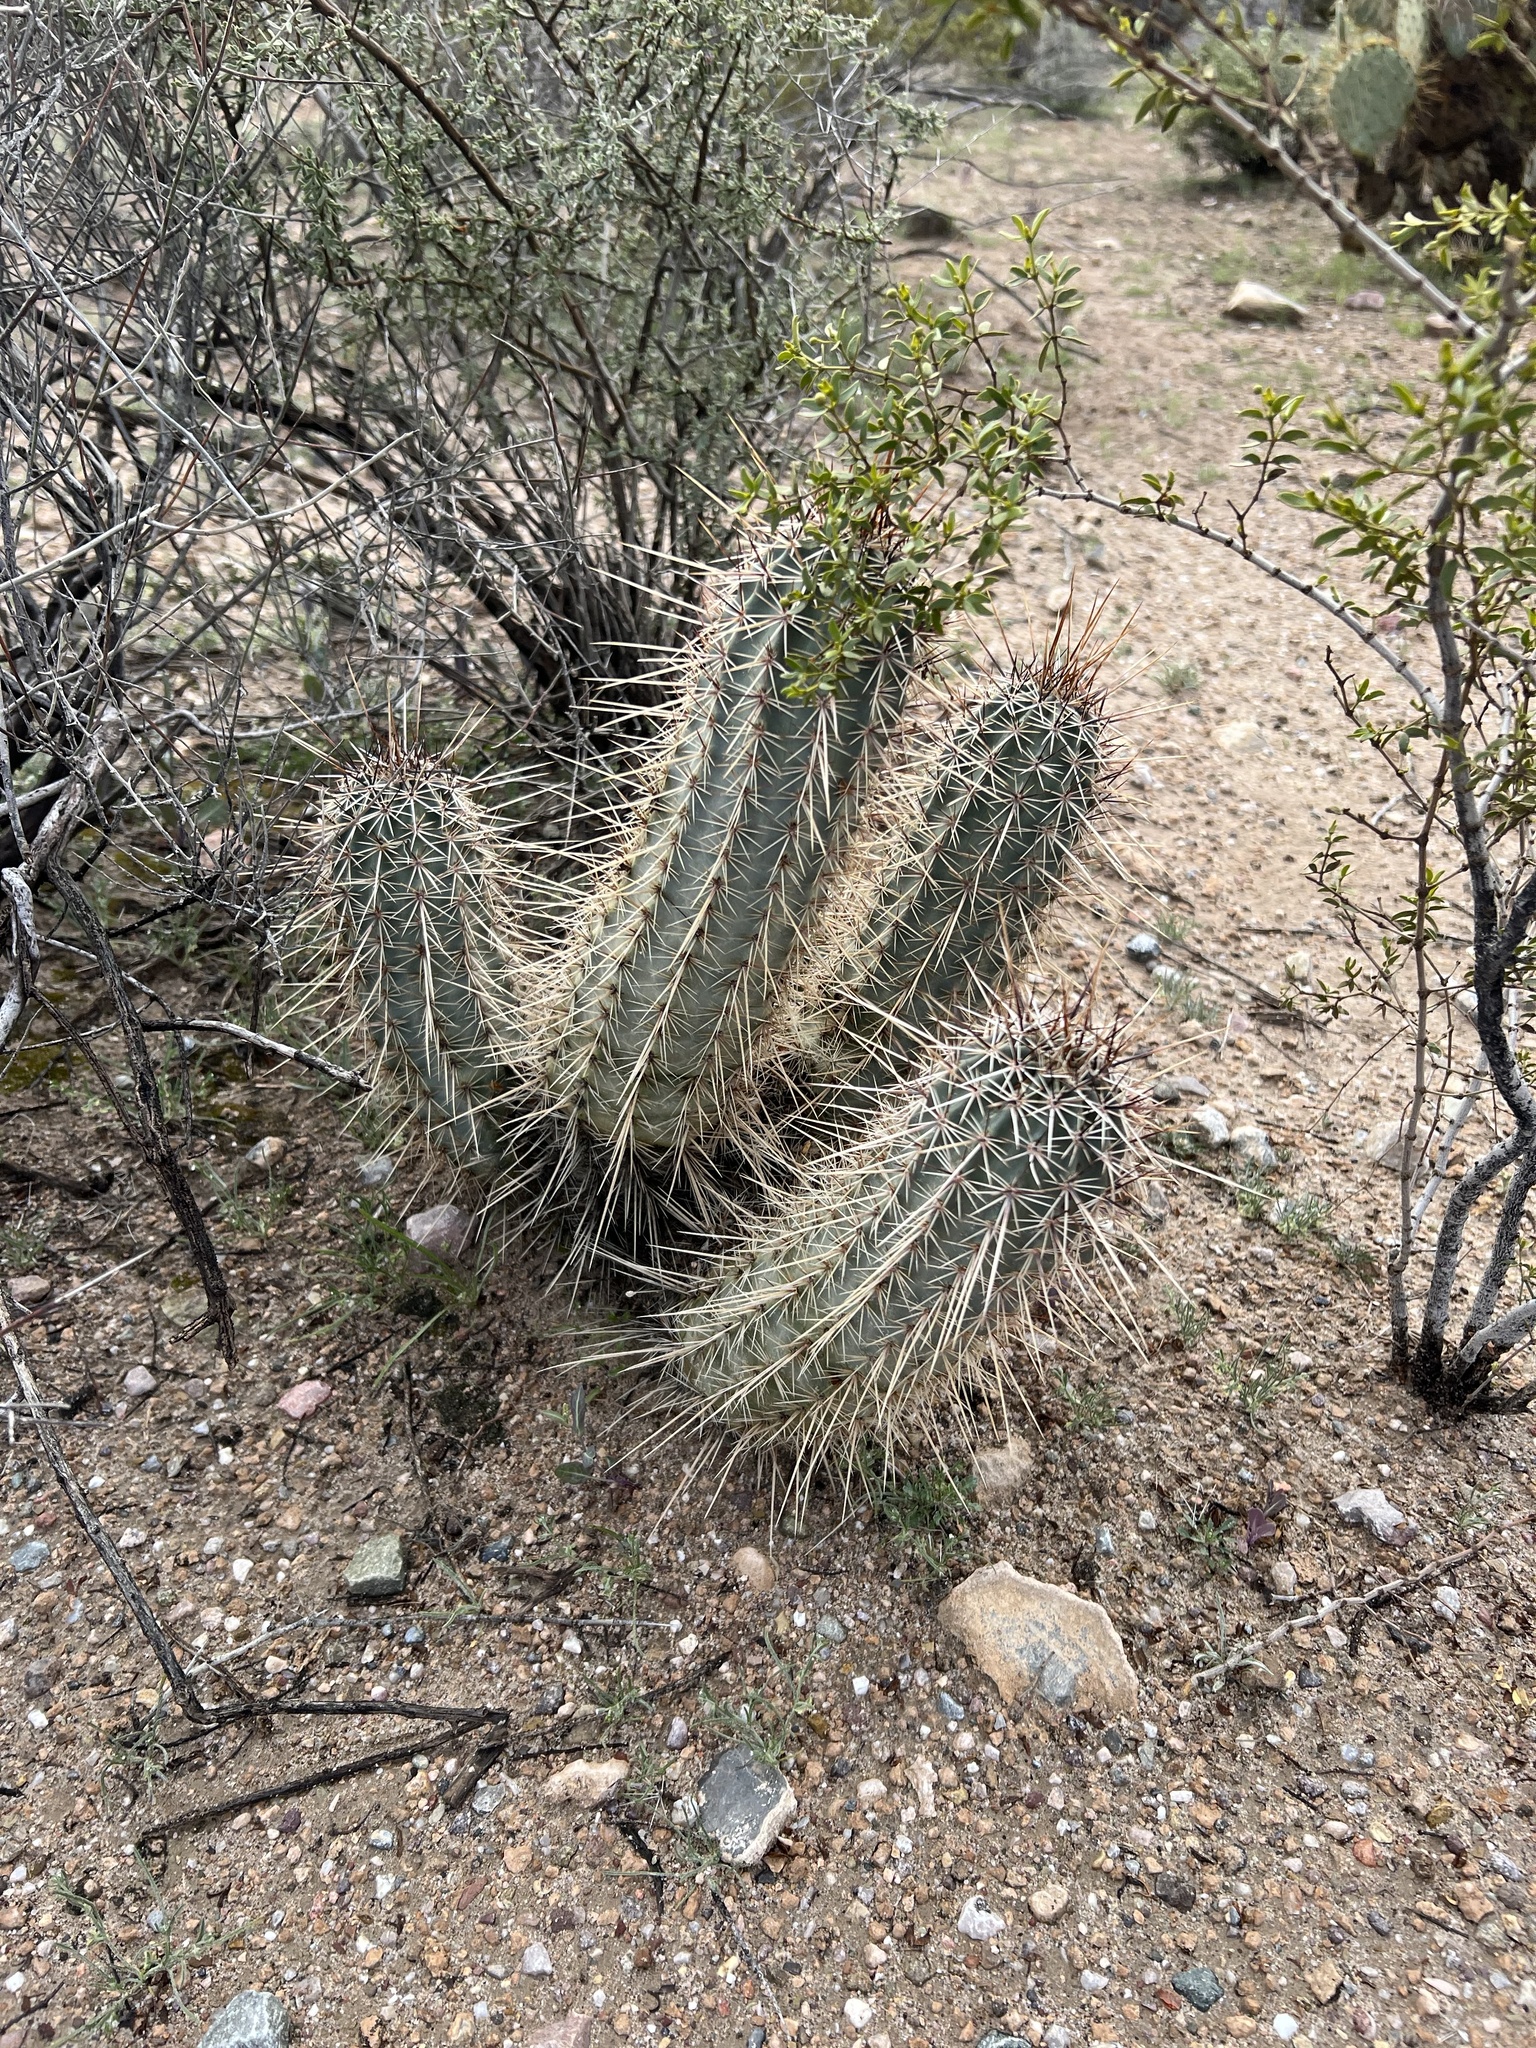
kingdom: Plantae
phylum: Tracheophyta
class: Magnoliopsida
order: Caryophyllales
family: Cactaceae
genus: Echinocereus
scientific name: Echinocereus fasciculatus
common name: Bundle hedgehog
